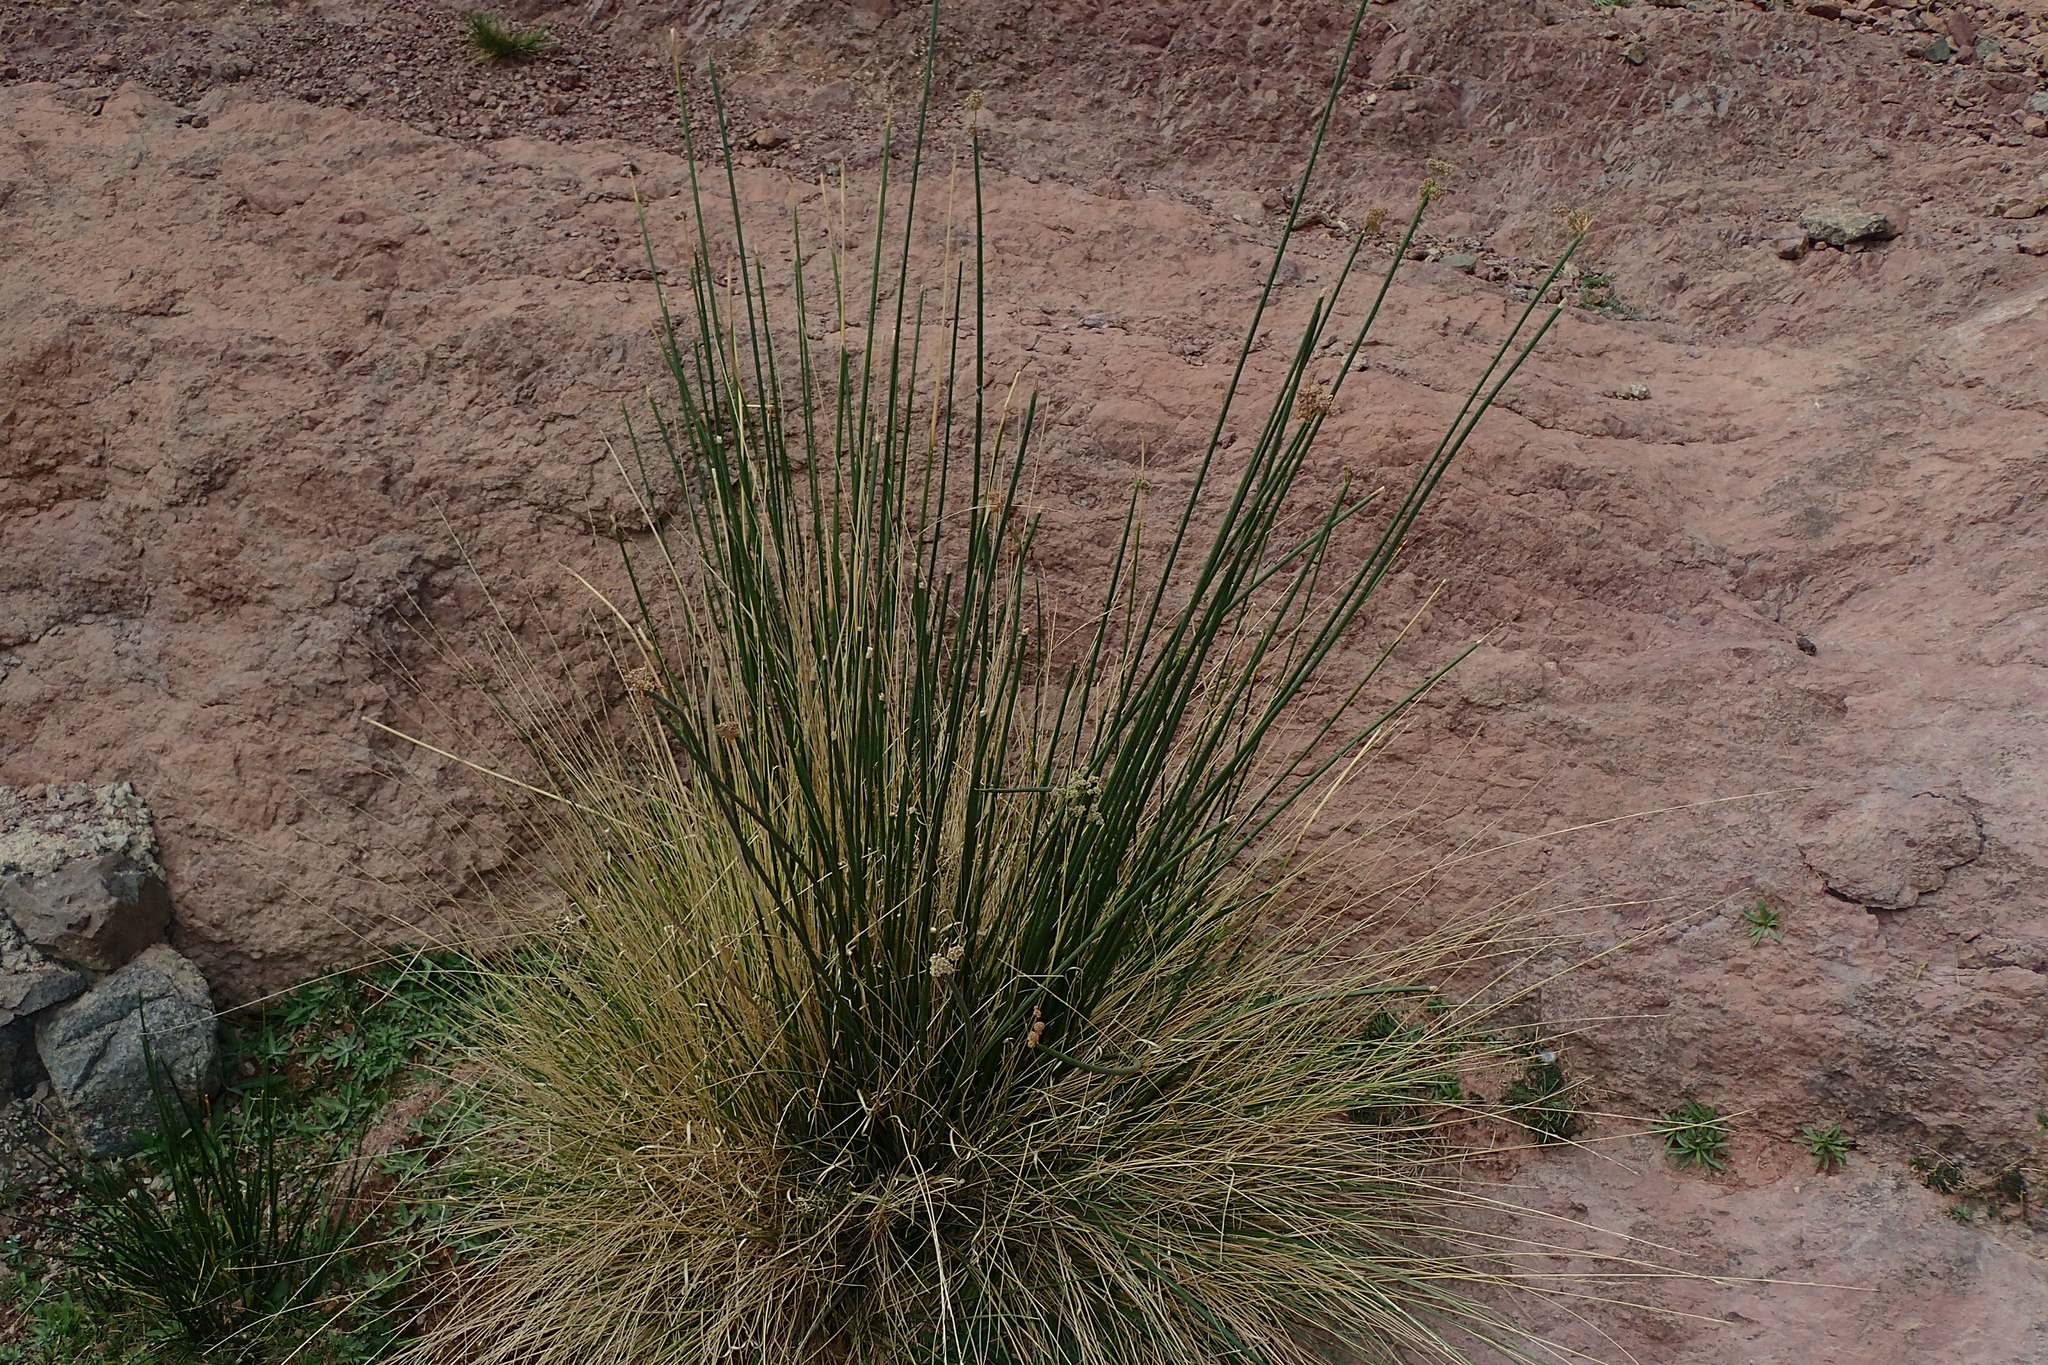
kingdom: Plantae
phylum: Tracheophyta
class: Liliopsida
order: Poales
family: Cyperaceae
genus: Scirpoides
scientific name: Scirpoides holoschoenus
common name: Round-headed club-rush
